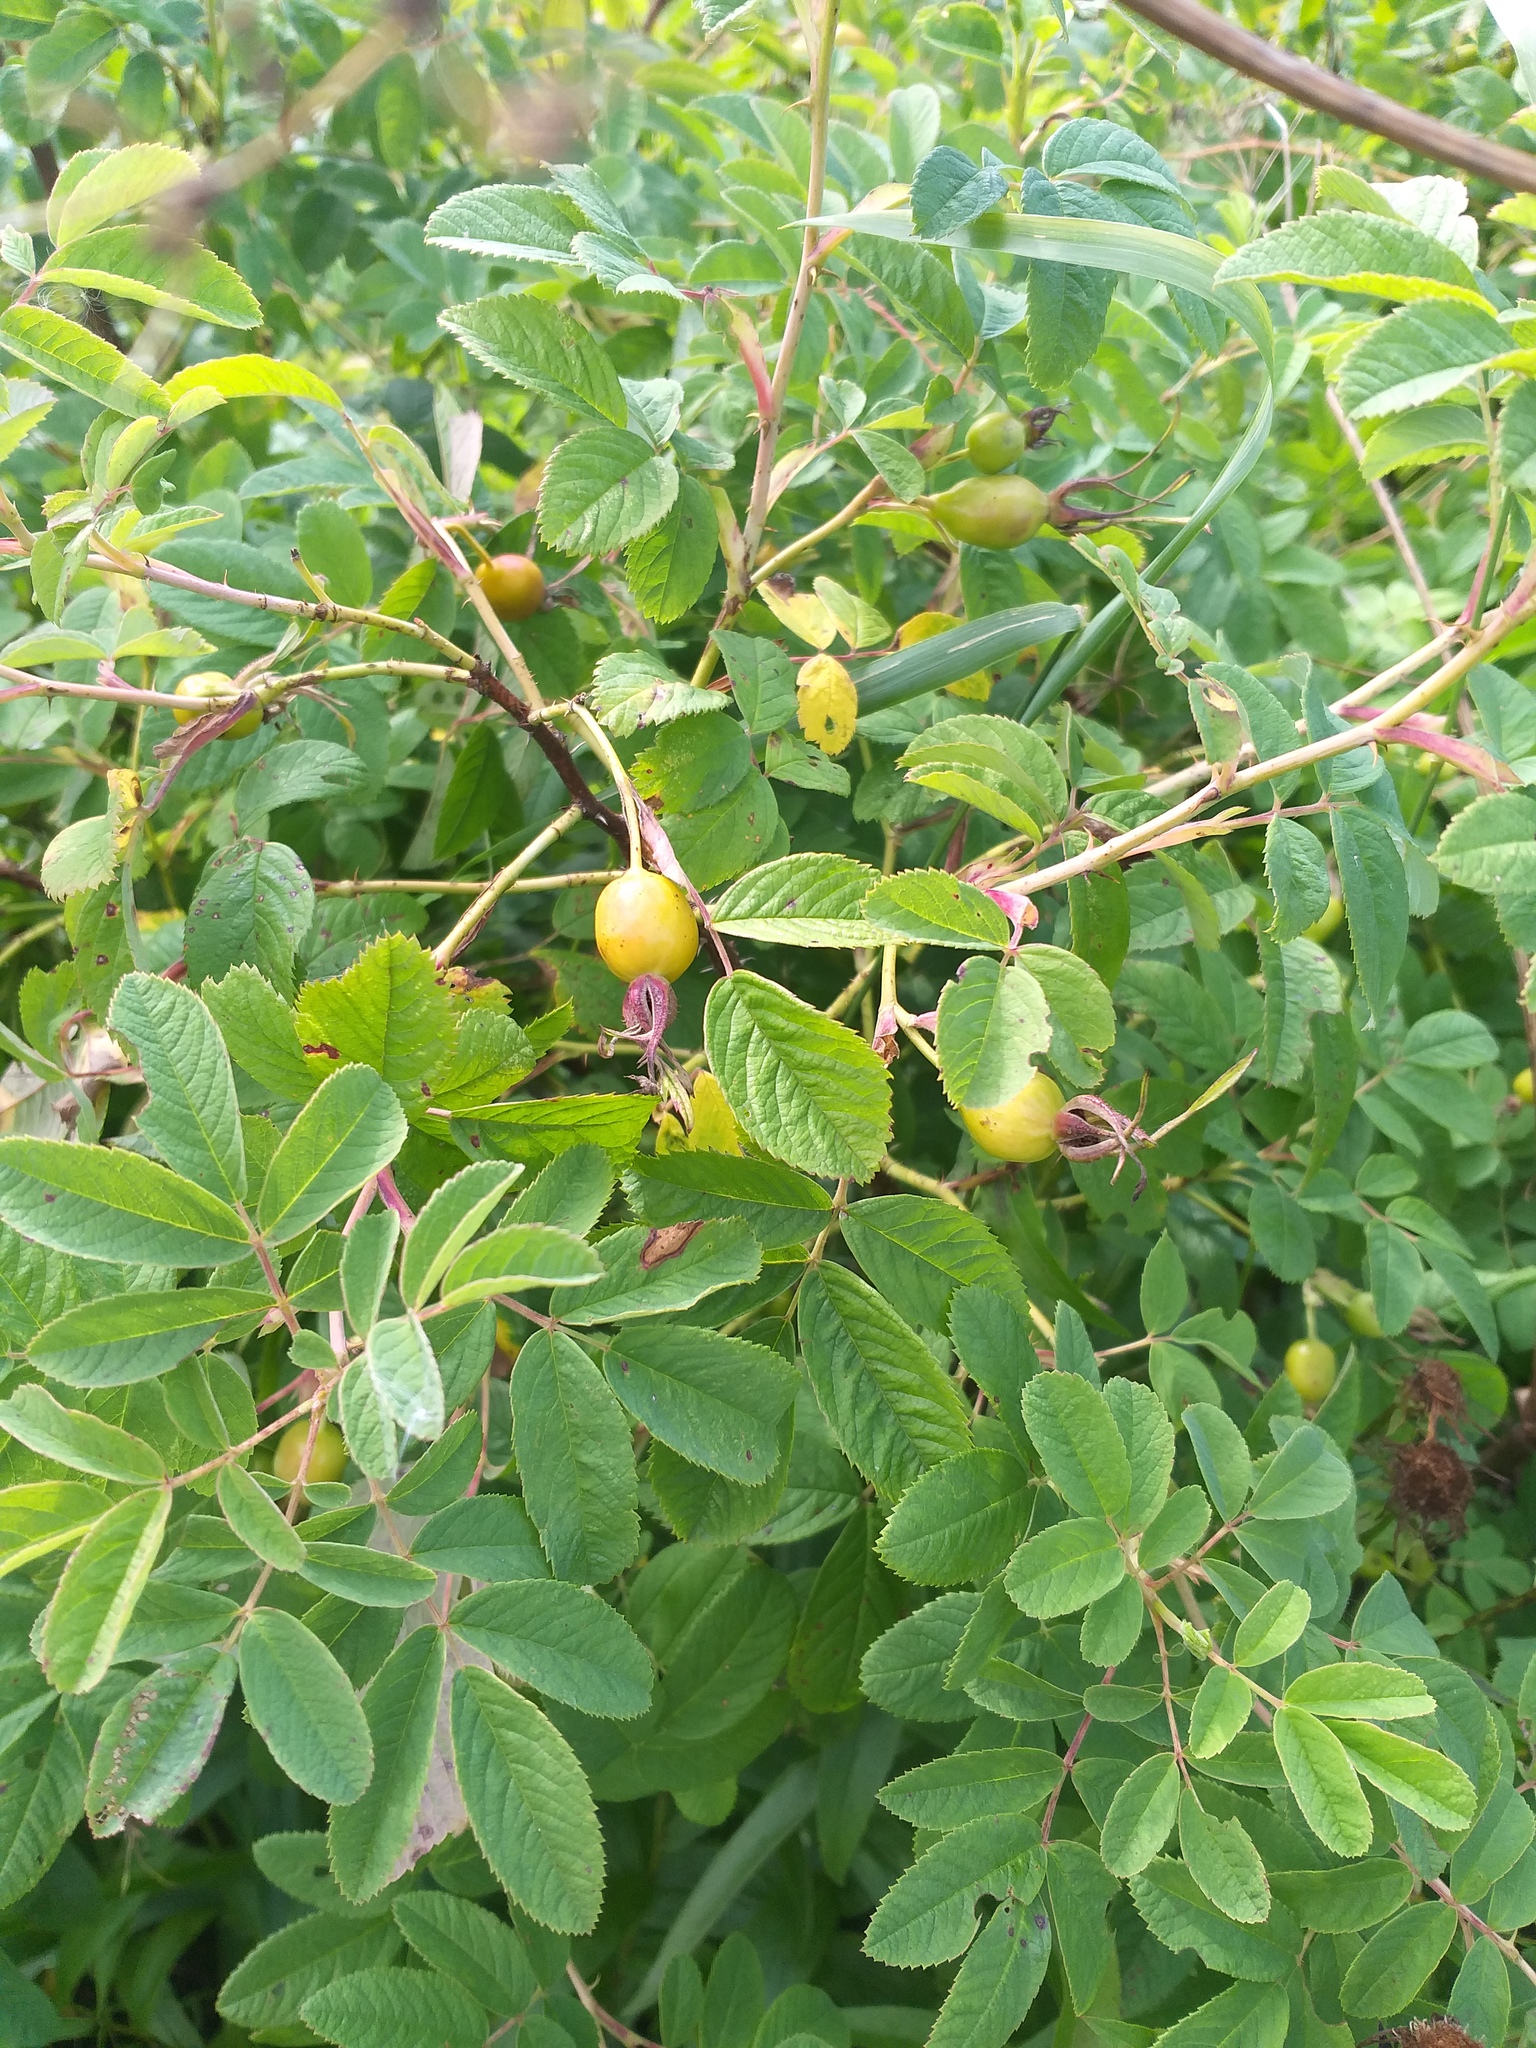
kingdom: Plantae
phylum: Tracheophyta
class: Magnoliopsida
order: Rosales
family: Rosaceae
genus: Rosa
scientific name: Rosa majalis
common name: Cinnamon rose
